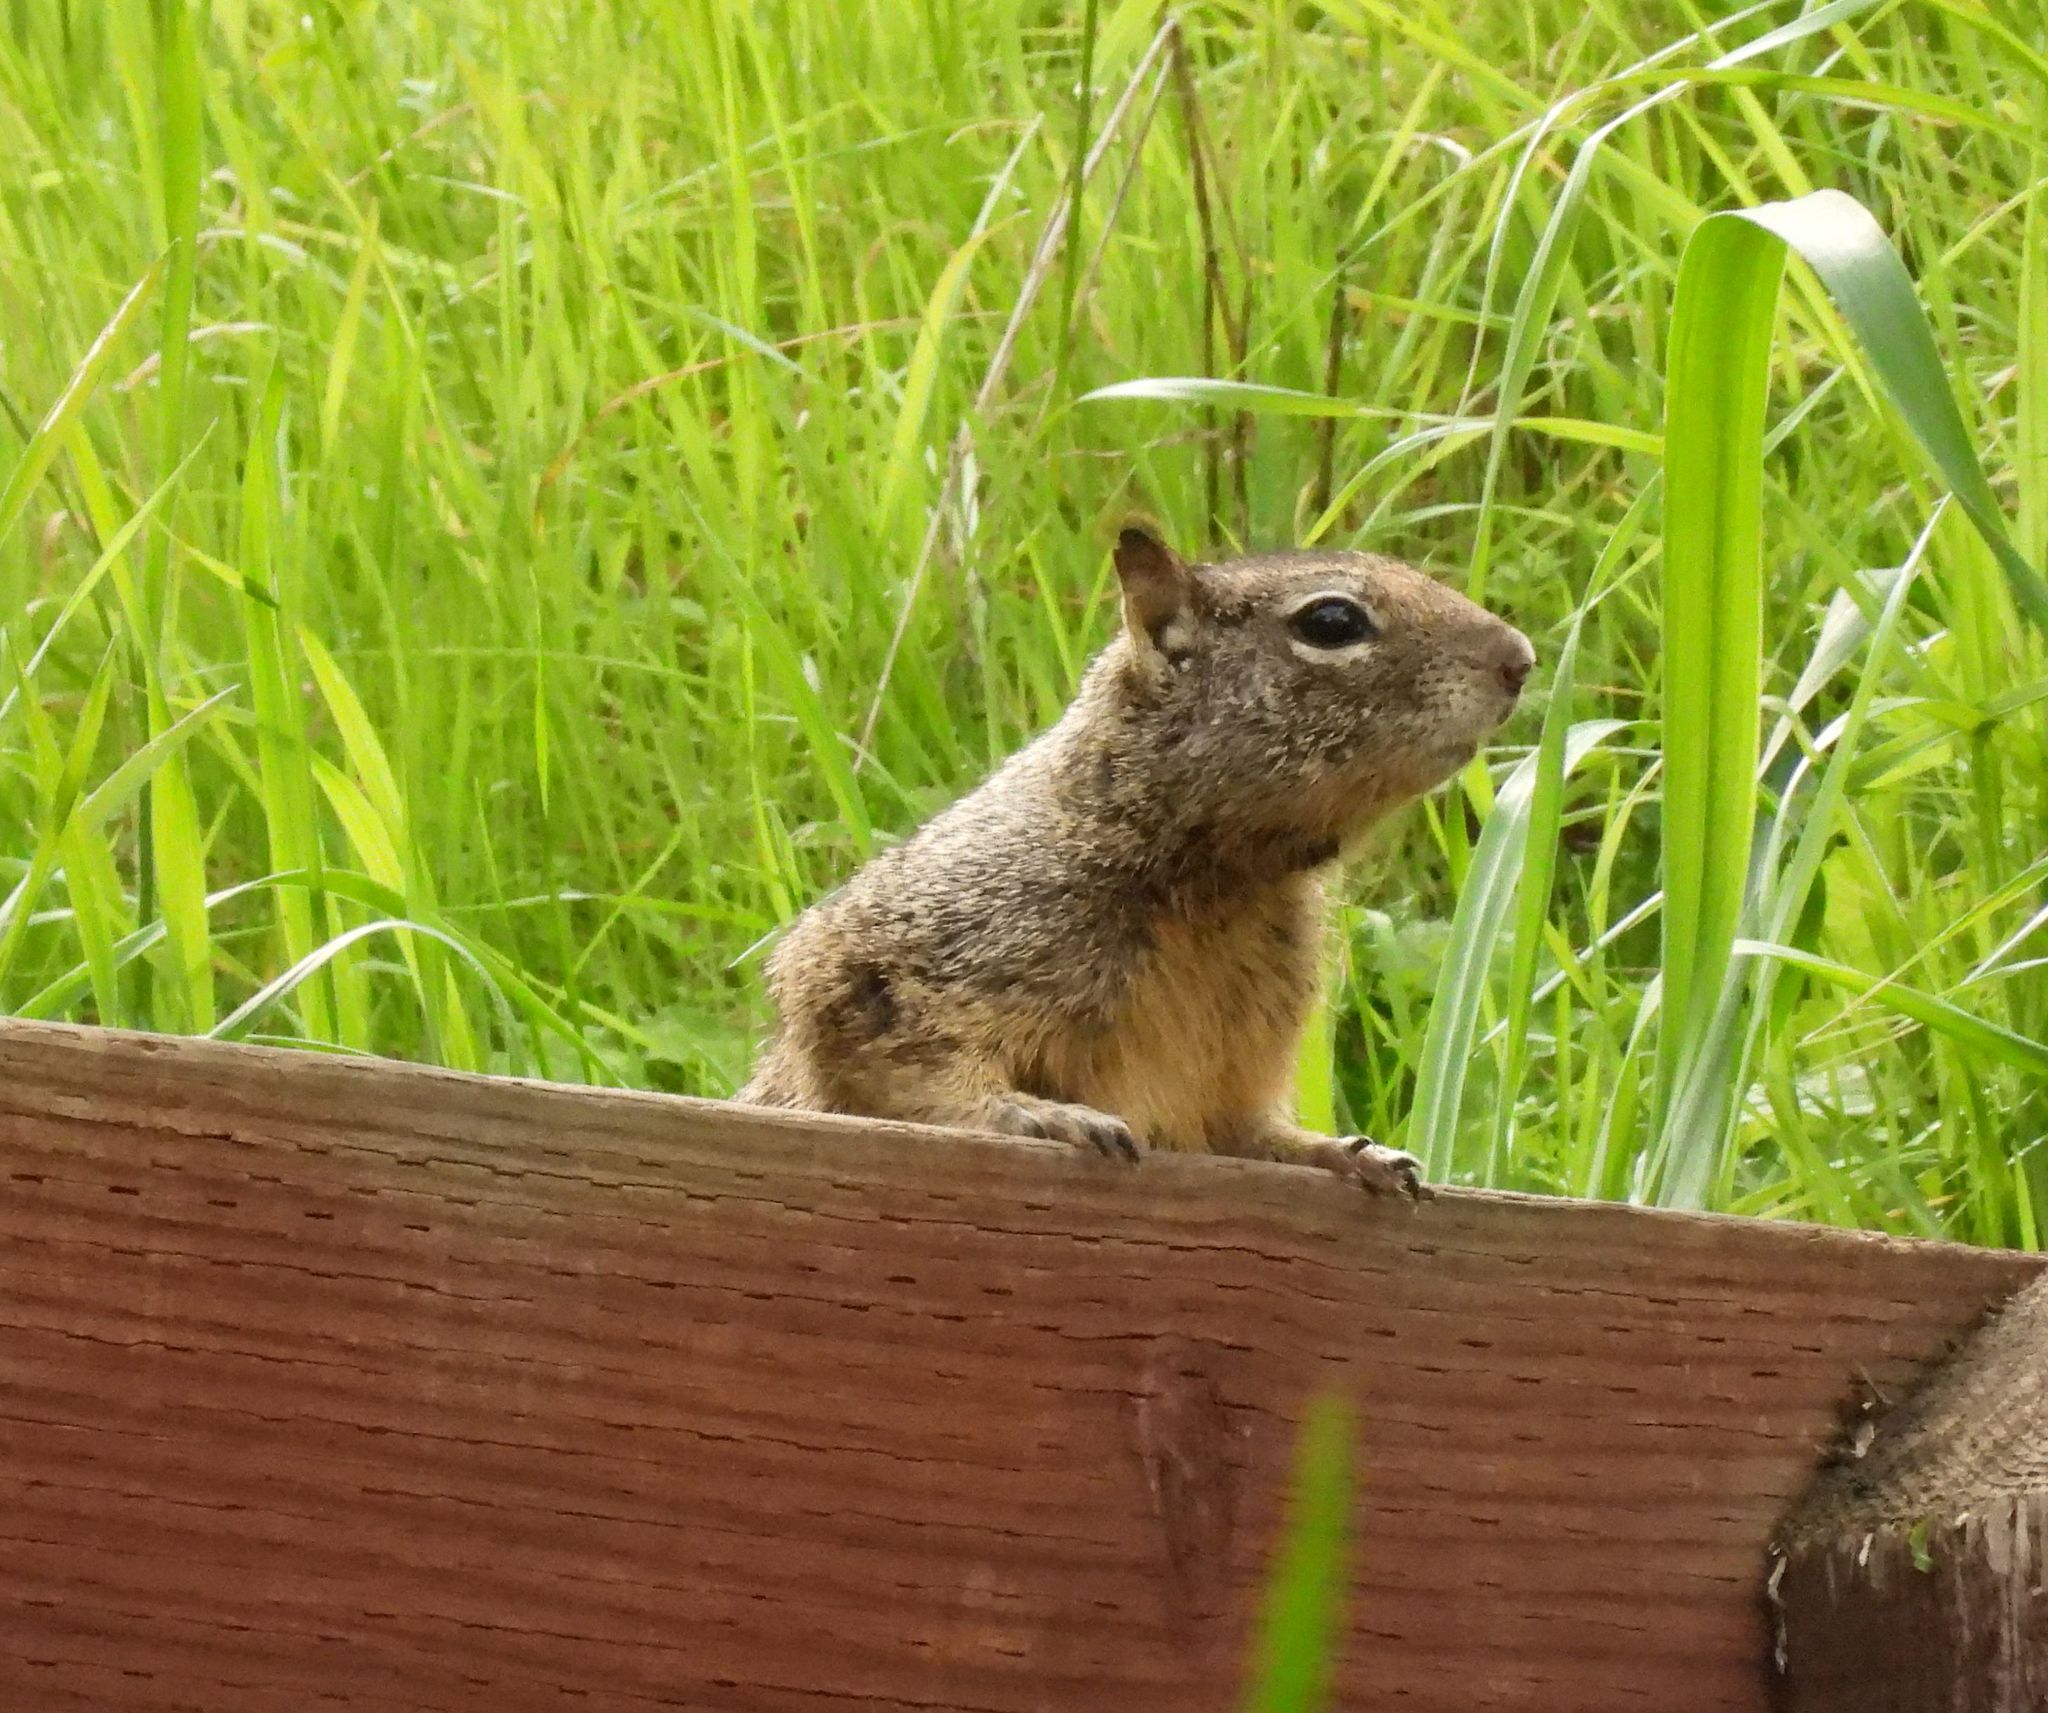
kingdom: Animalia
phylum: Chordata
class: Mammalia
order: Rodentia
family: Sciuridae
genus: Otospermophilus
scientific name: Otospermophilus beecheyi
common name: California ground squirrel
